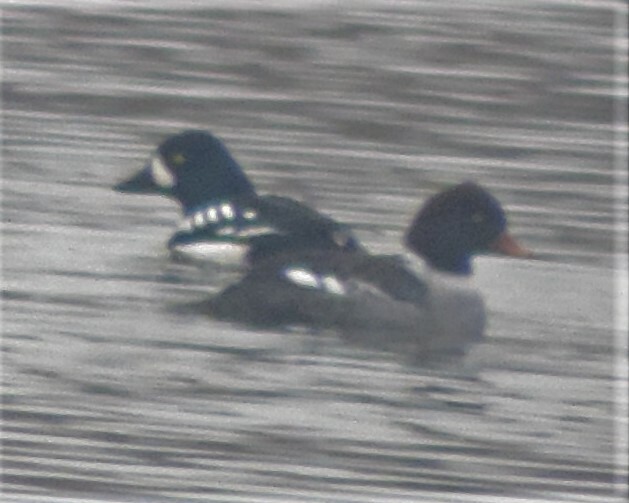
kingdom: Animalia
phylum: Chordata
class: Aves
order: Anseriformes
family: Anatidae
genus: Bucephala
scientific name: Bucephala islandica
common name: Barrow's goldeneye
